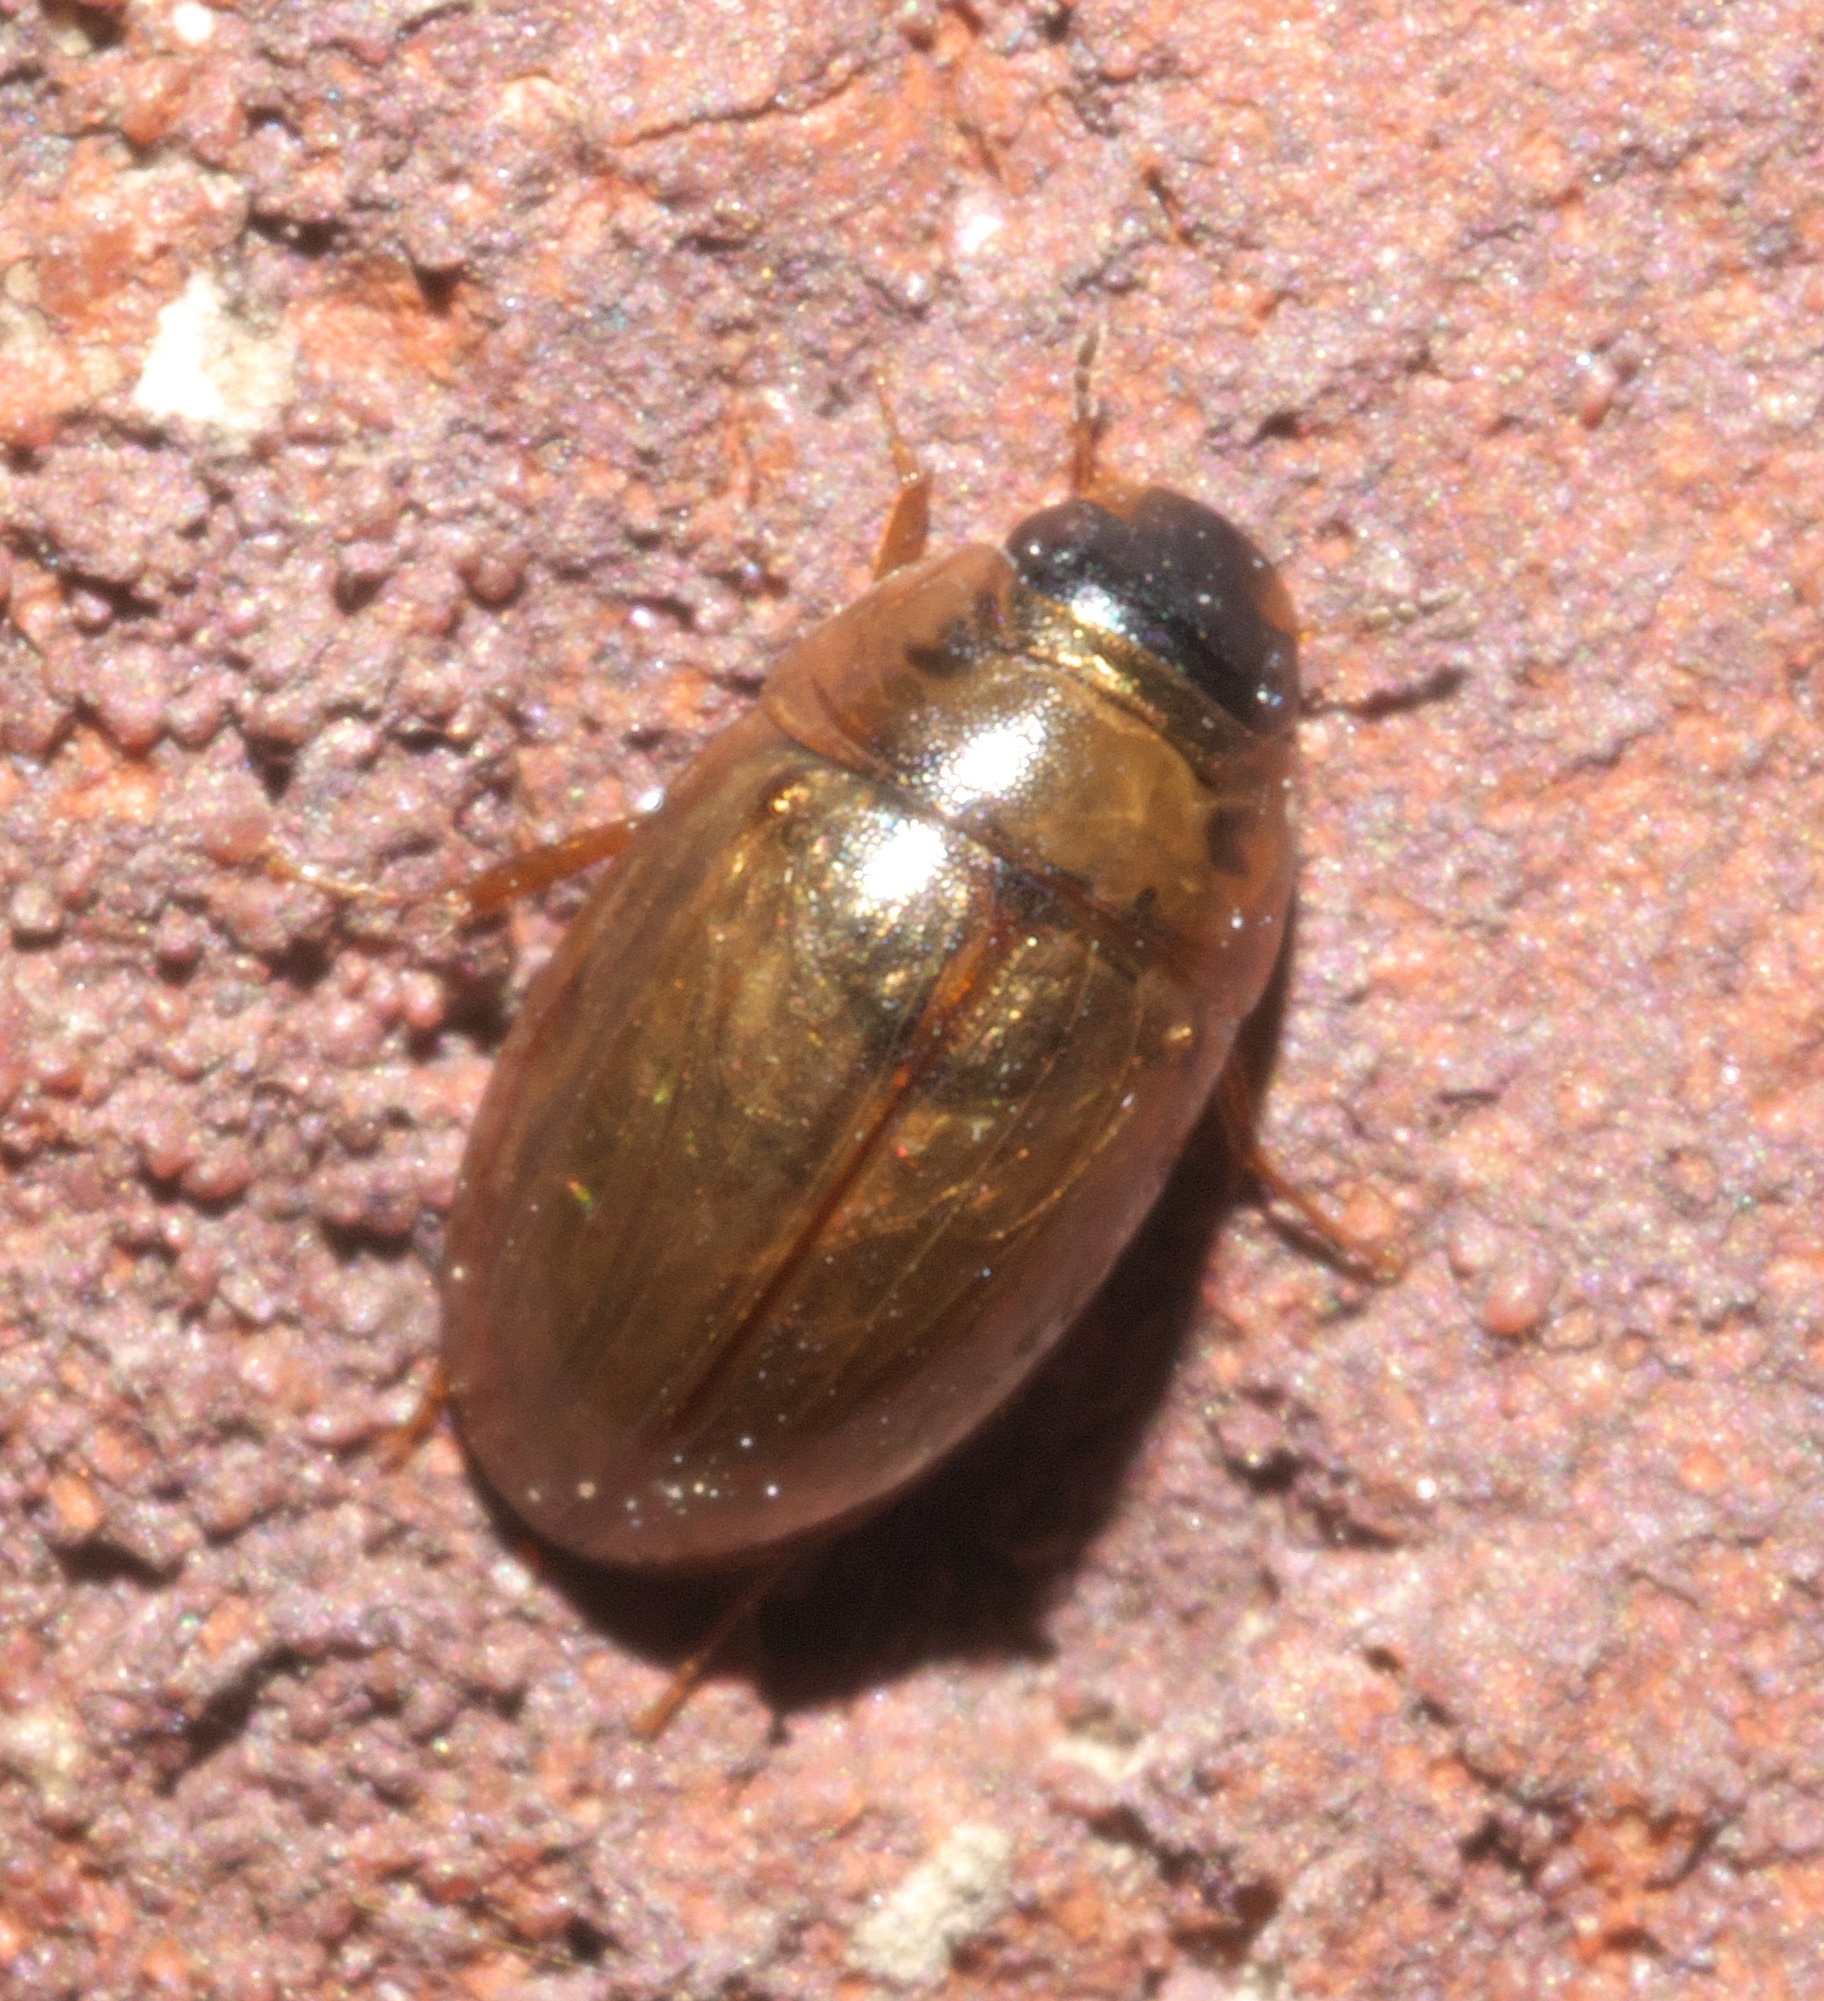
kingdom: Animalia
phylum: Arthropoda
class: Insecta
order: Coleoptera
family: Hydrophilidae
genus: Enochrus
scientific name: Enochrus
